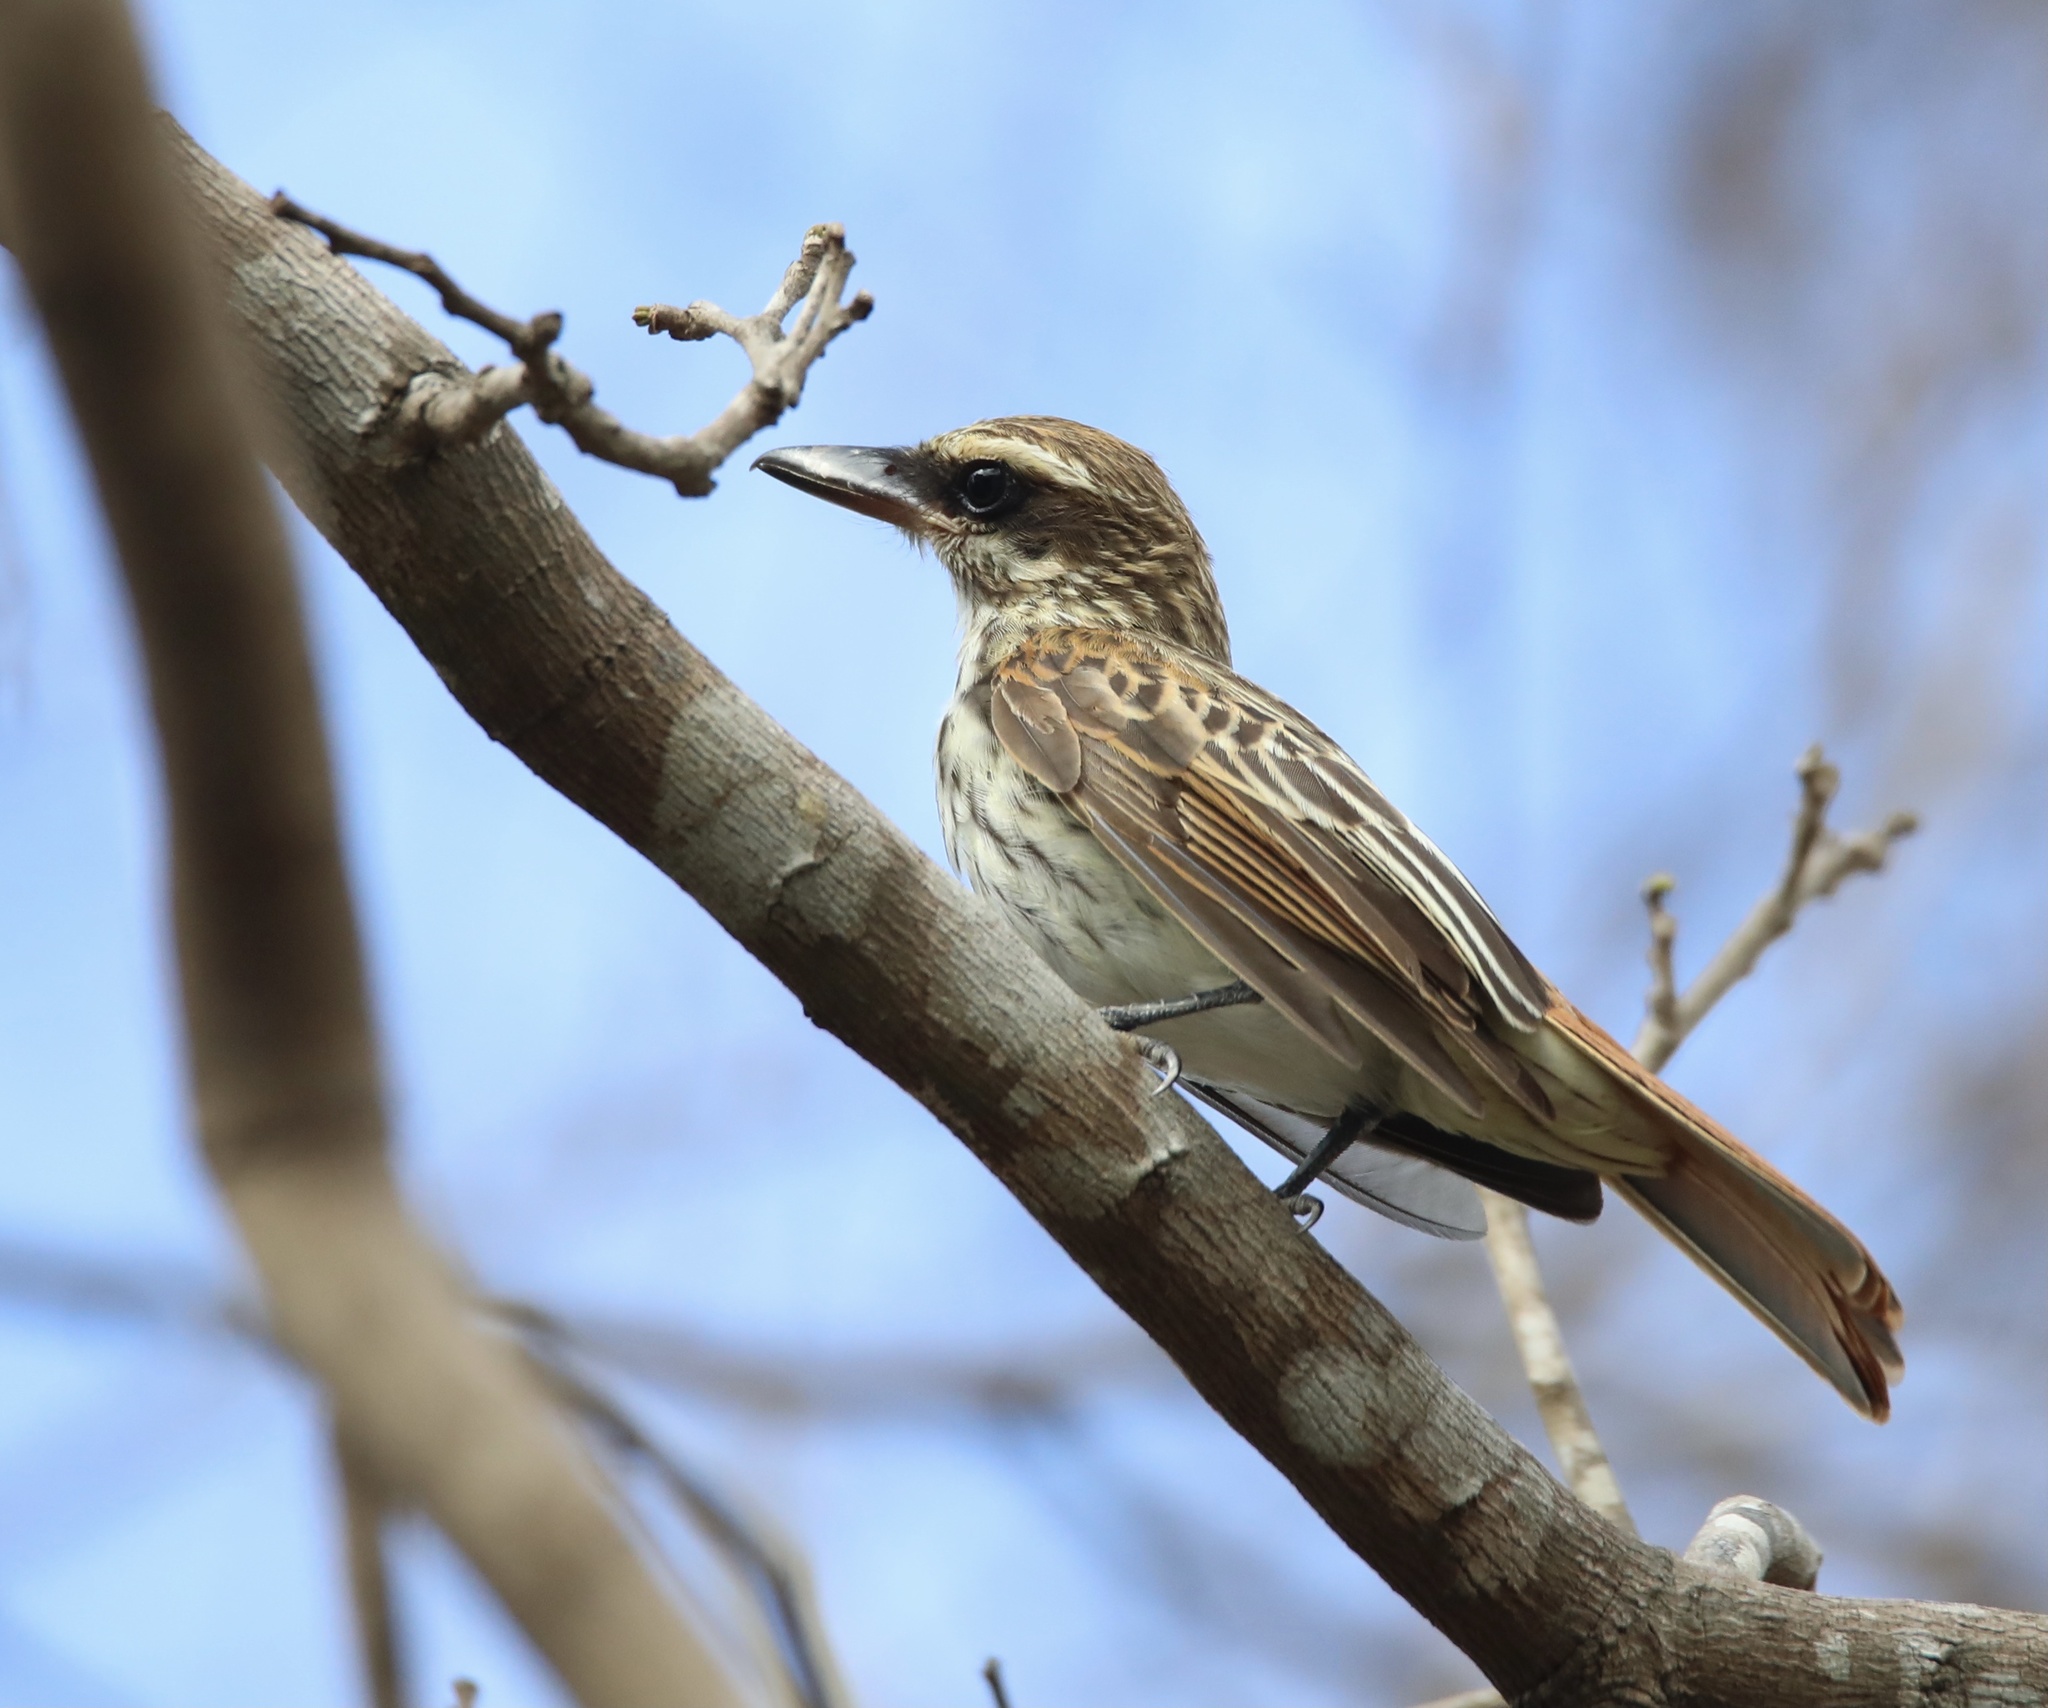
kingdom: Animalia
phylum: Chordata
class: Aves
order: Passeriformes
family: Tyrannidae
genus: Myiodynastes
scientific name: Myiodynastes maculatus
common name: Streaked flycatcher
